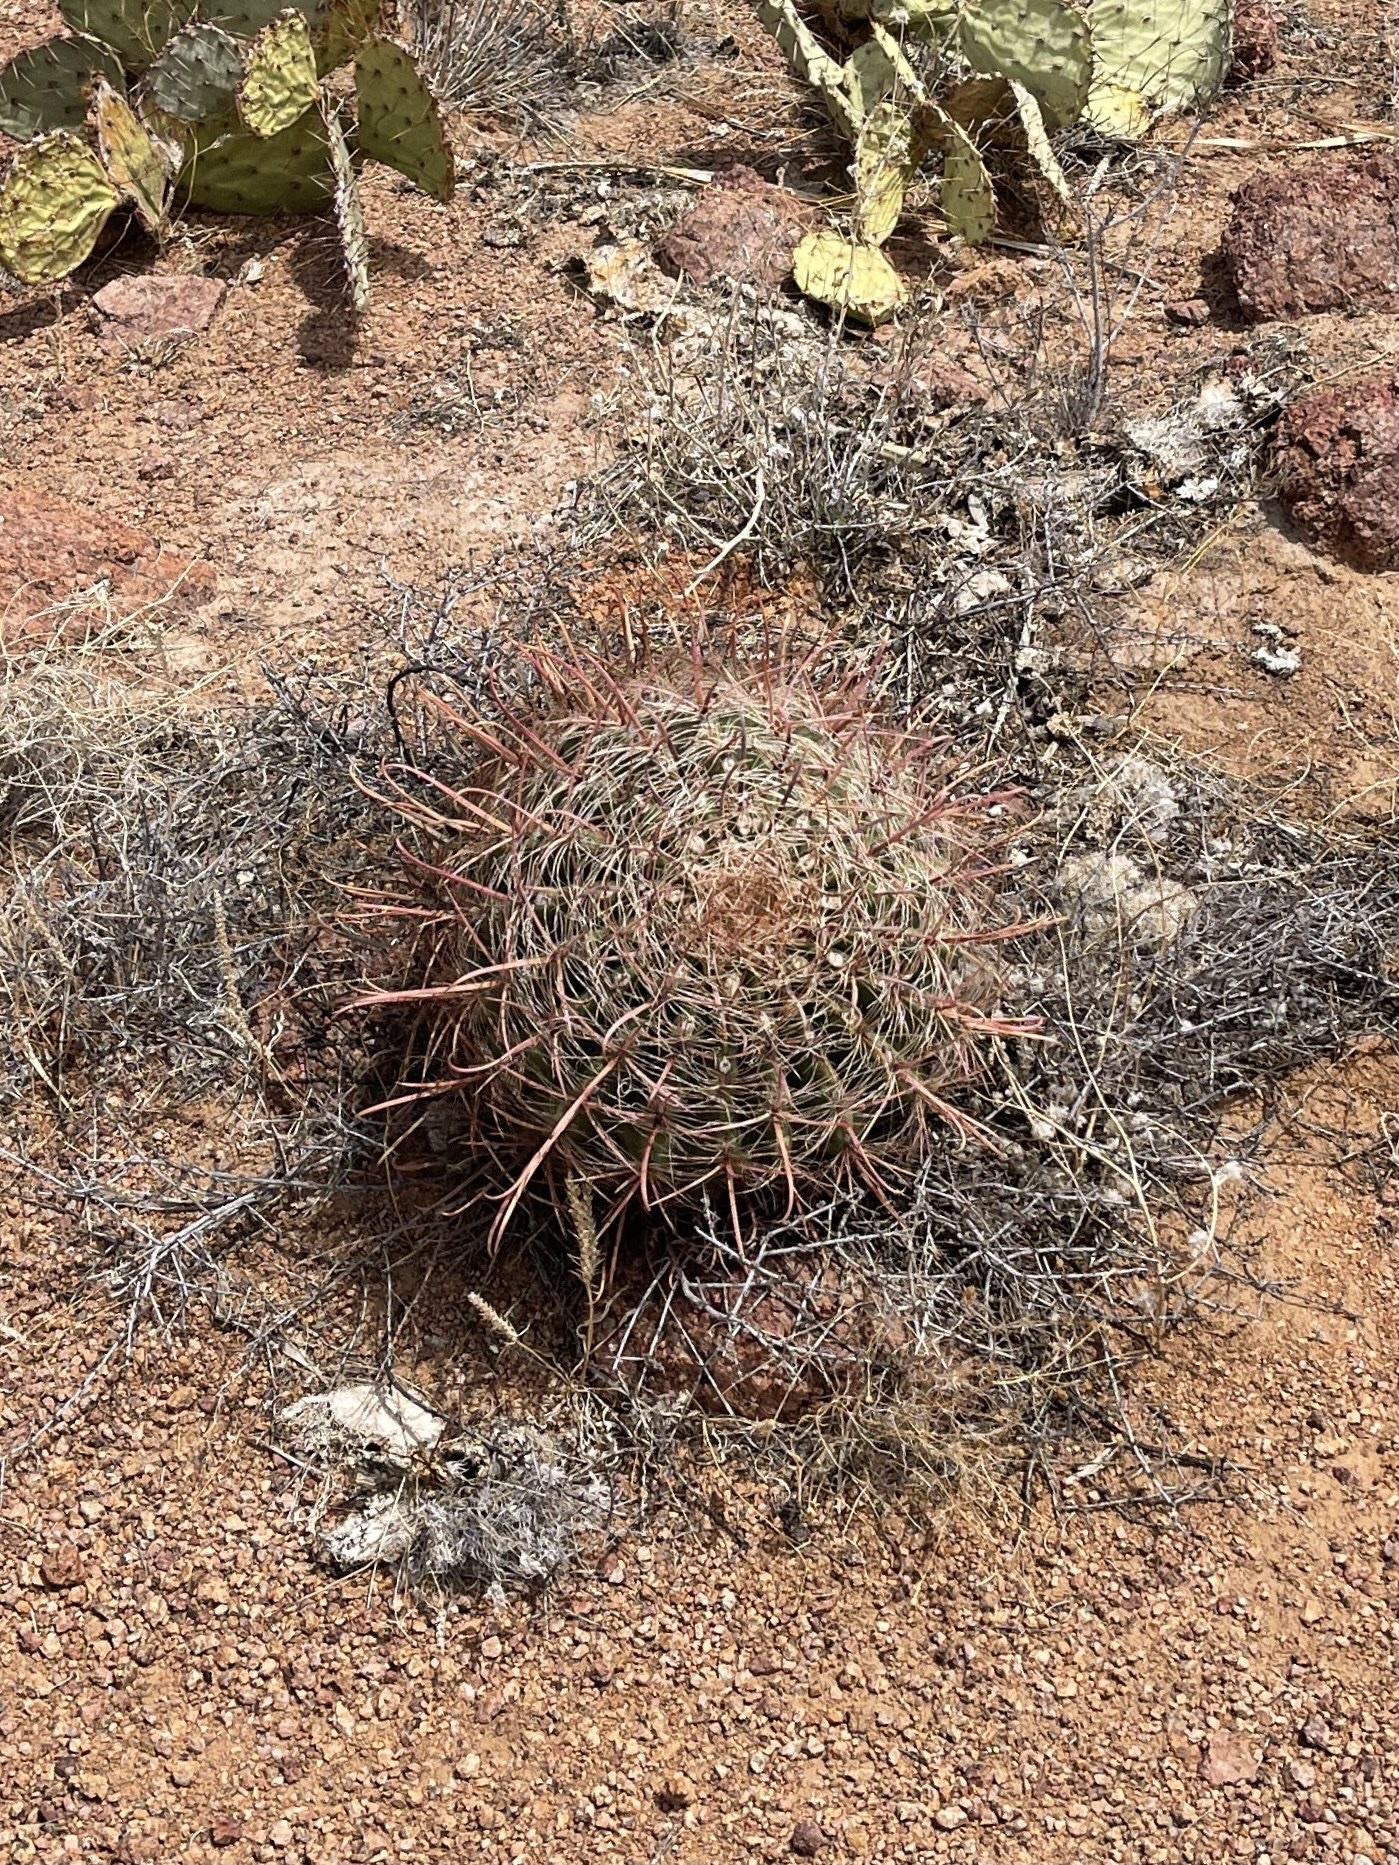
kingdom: Plantae
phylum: Tracheophyta
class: Magnoliopsida
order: Caryophyllales
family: Cactaceae
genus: Ferocactus
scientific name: Ferocactus wislizeni
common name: Candy barrel cactus
